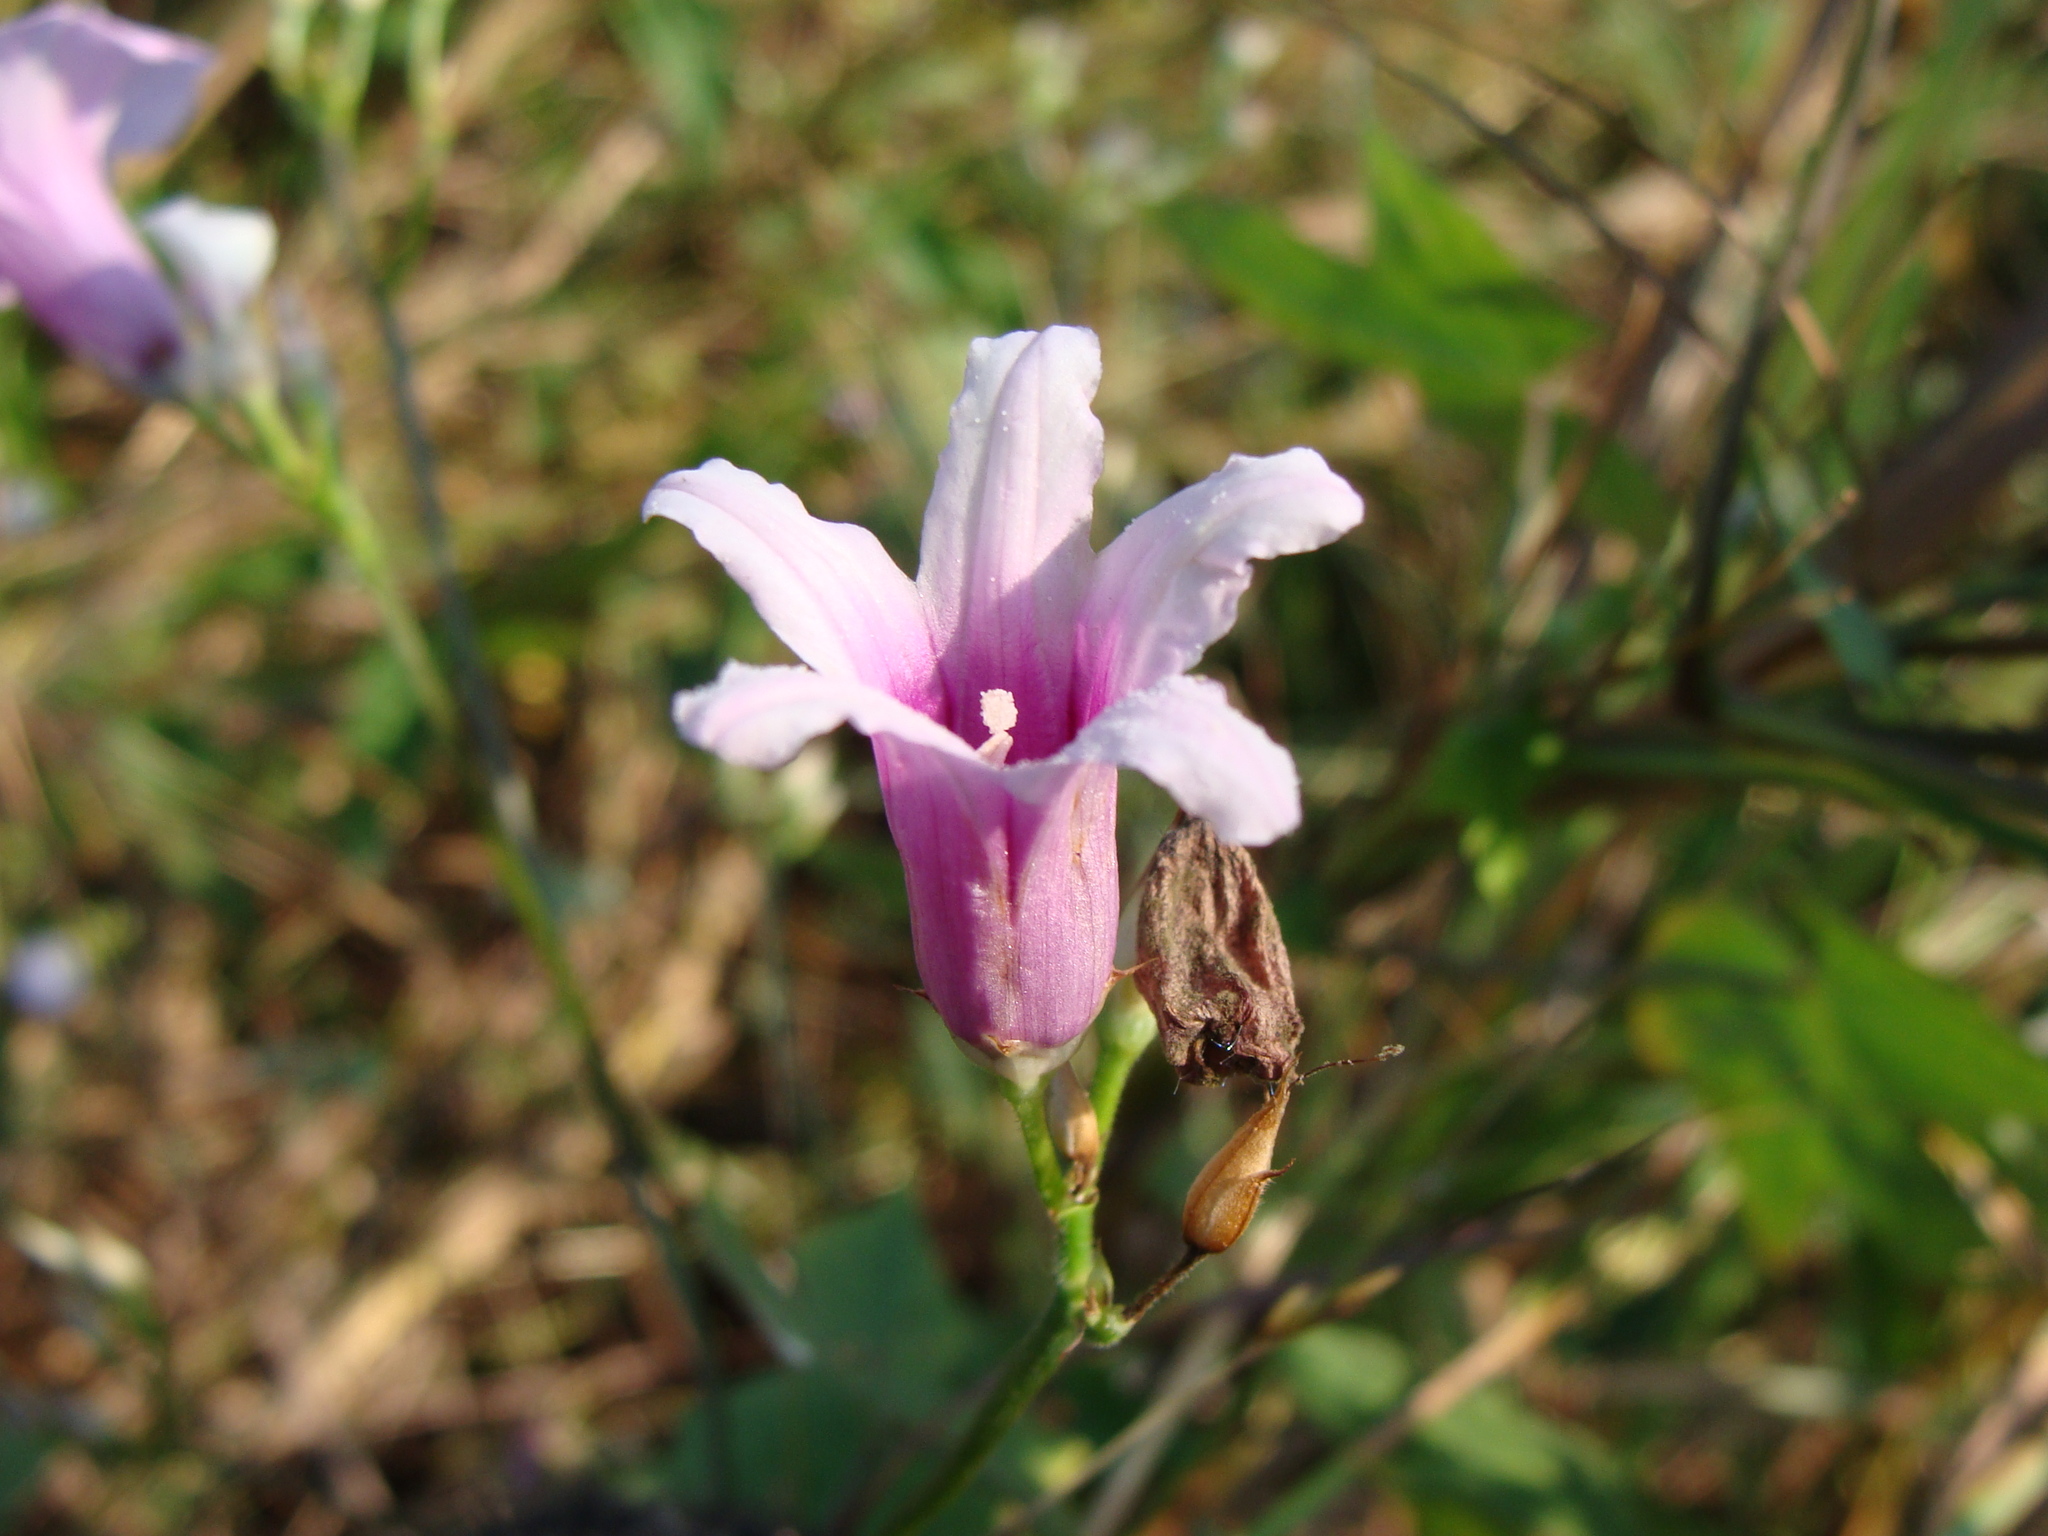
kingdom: Plantae
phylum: Tracheophyta
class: Magnoliopsida
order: Solanales
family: Convolvulaceae
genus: Ipomoea
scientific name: Ipomoea trifida
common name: Cotton morningglory
